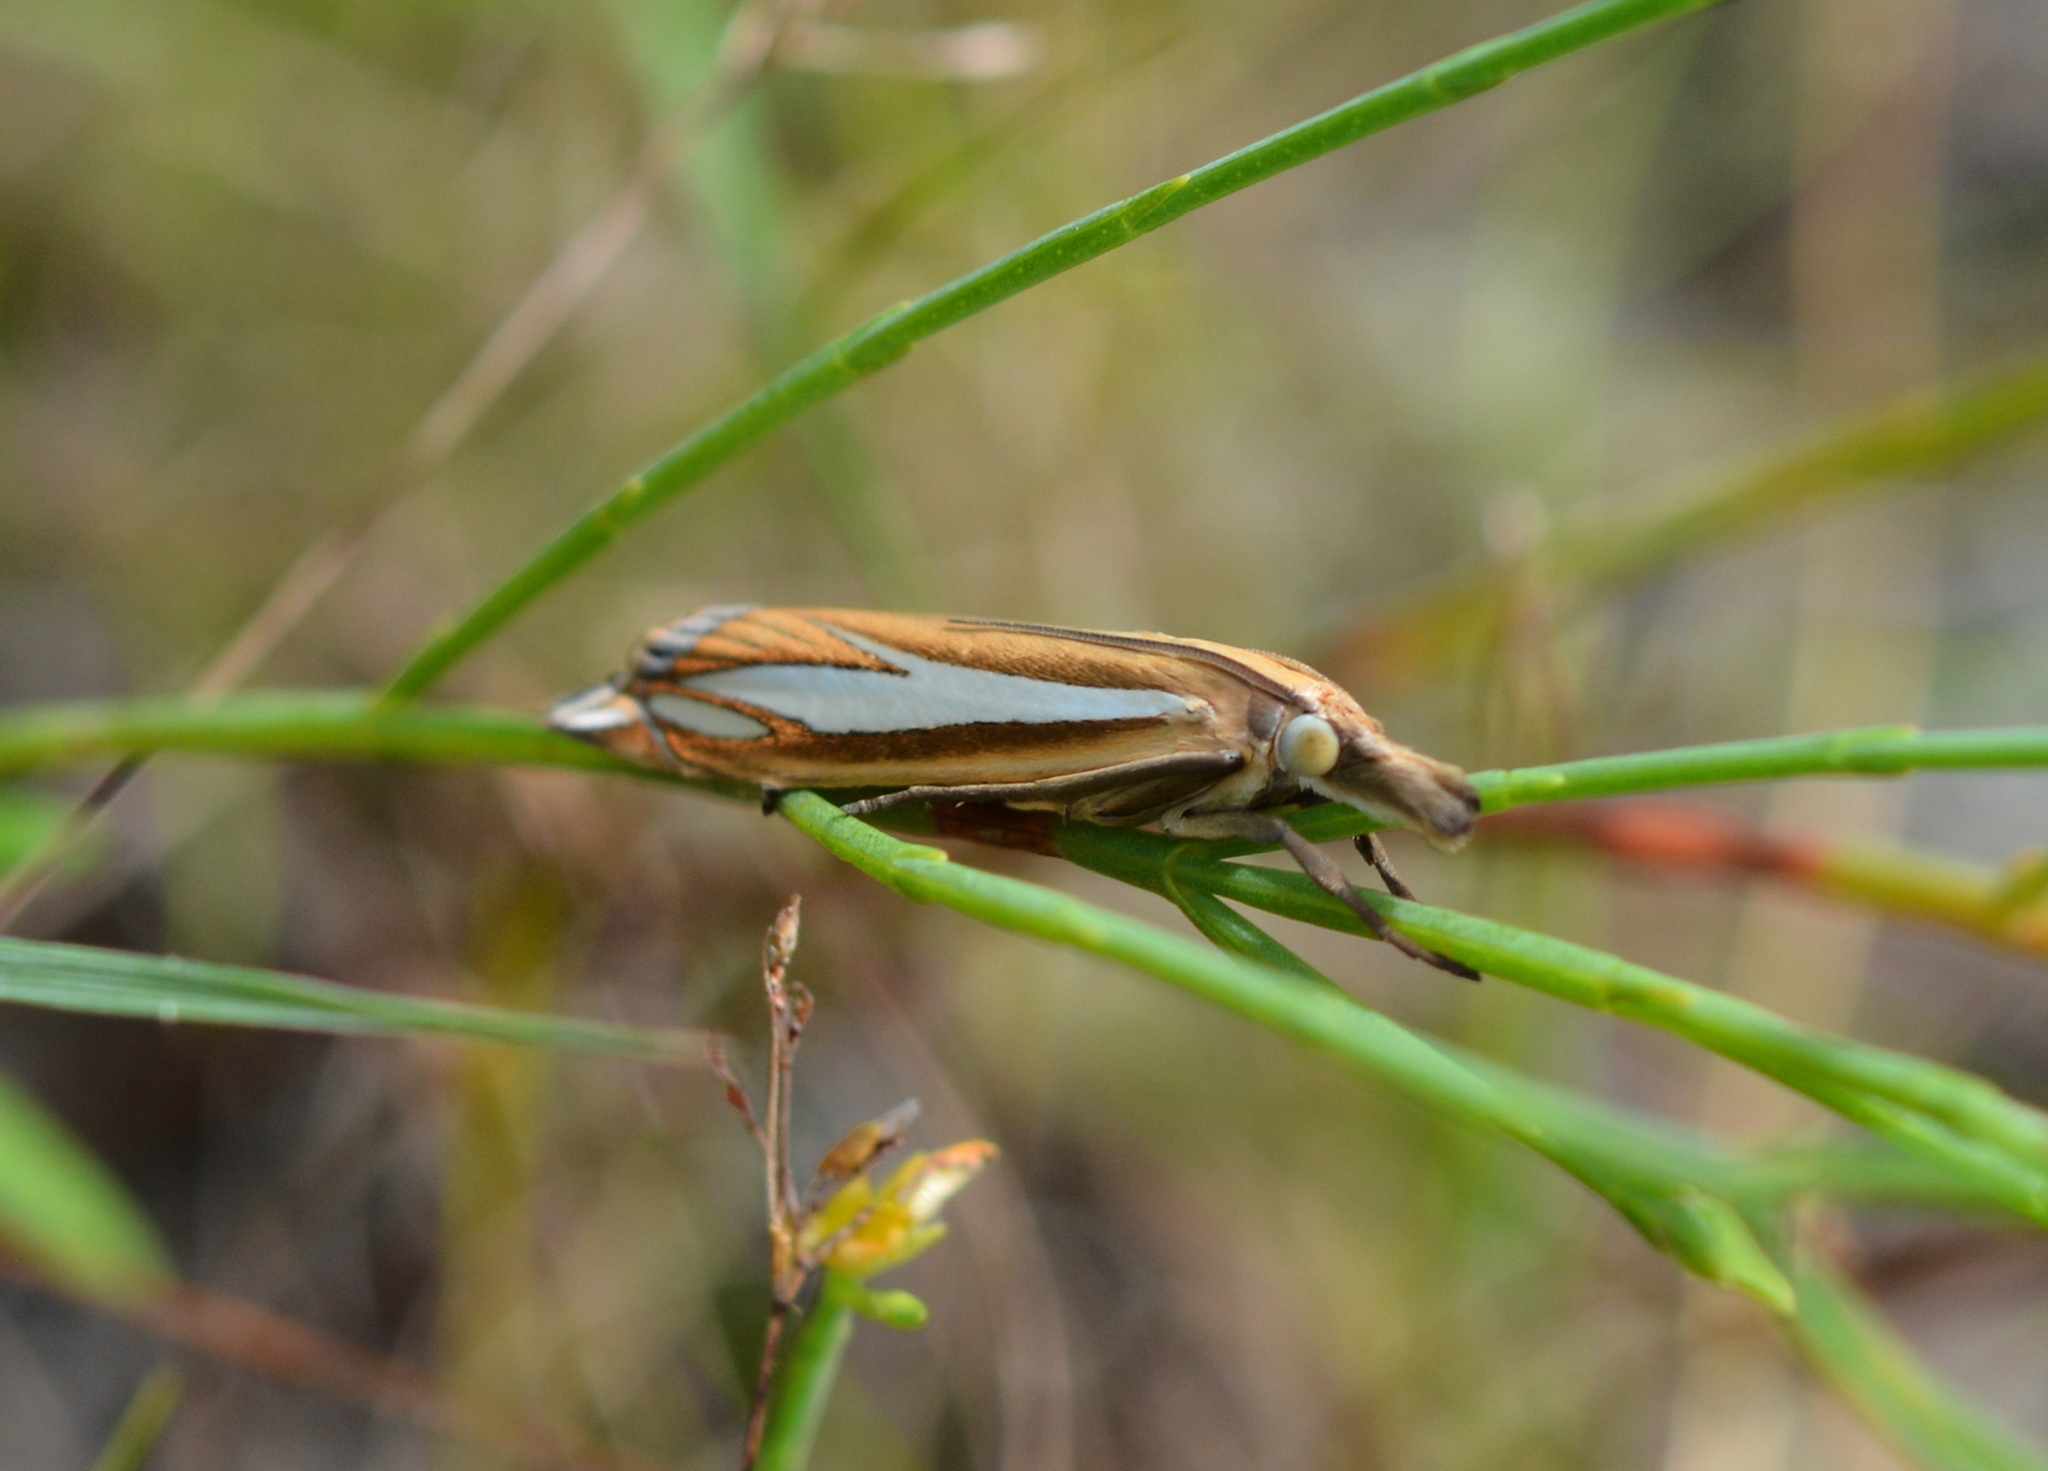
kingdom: Animalia
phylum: Arthropoda
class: Insecta
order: Lepidoptera
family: Crambidae
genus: Crambus
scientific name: Crambus satrapellus
